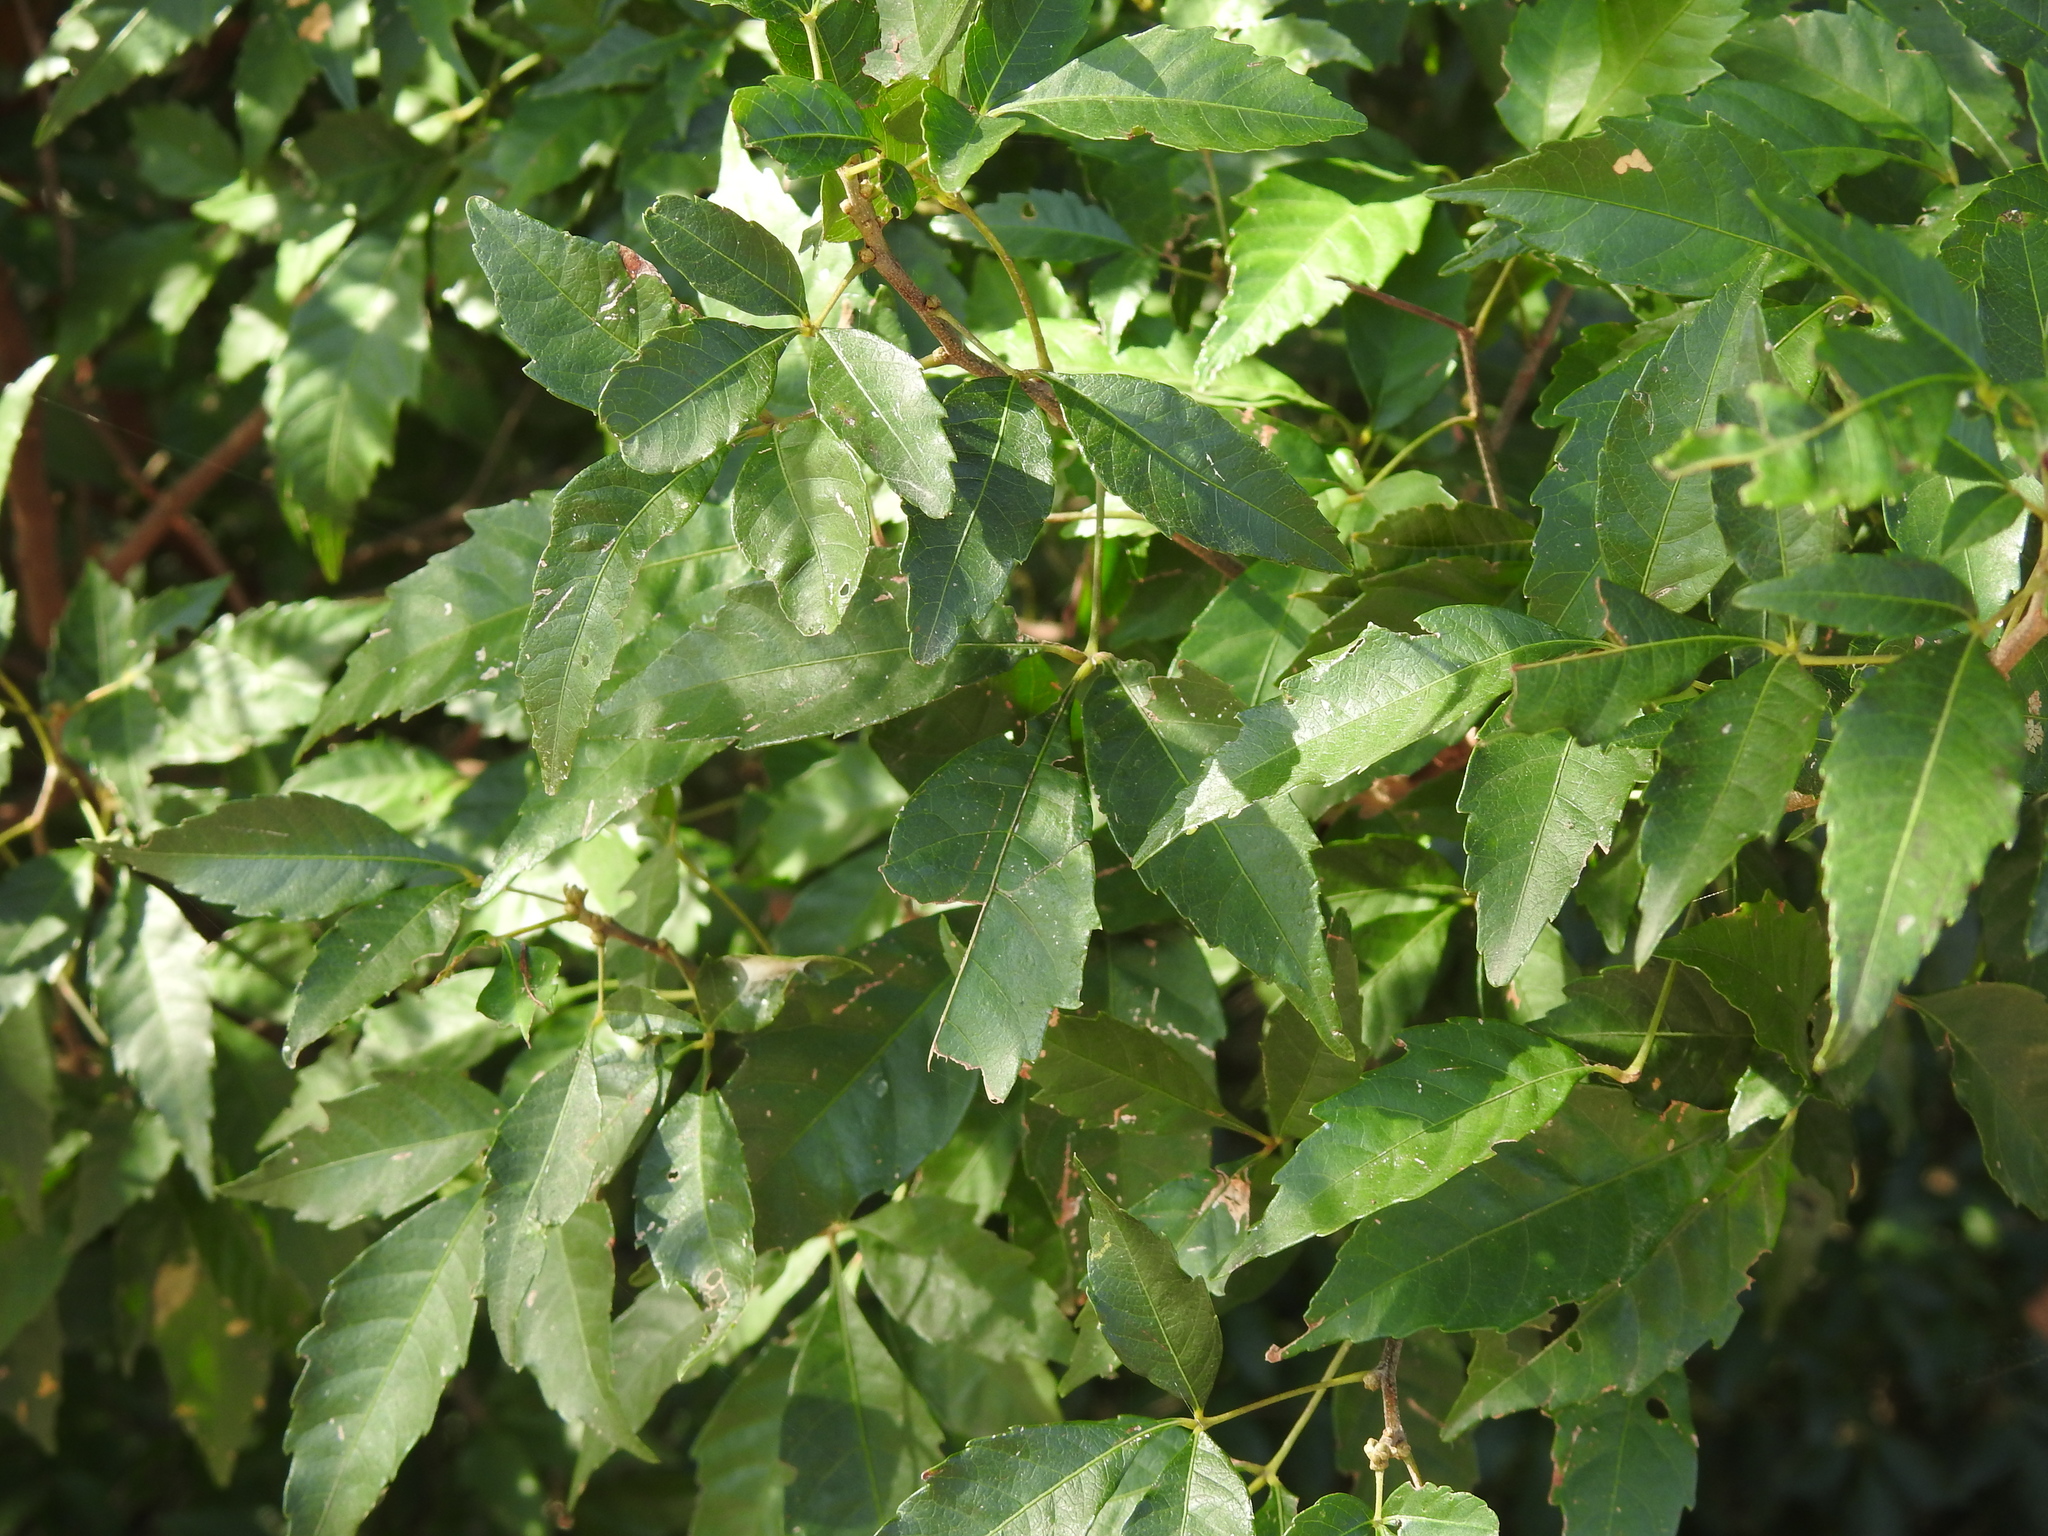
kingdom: Plantae
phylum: Tracheophyta
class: Magnoliopsida
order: Sapindales
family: Sapindaceae
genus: Allophylus
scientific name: Allophylus edulis
